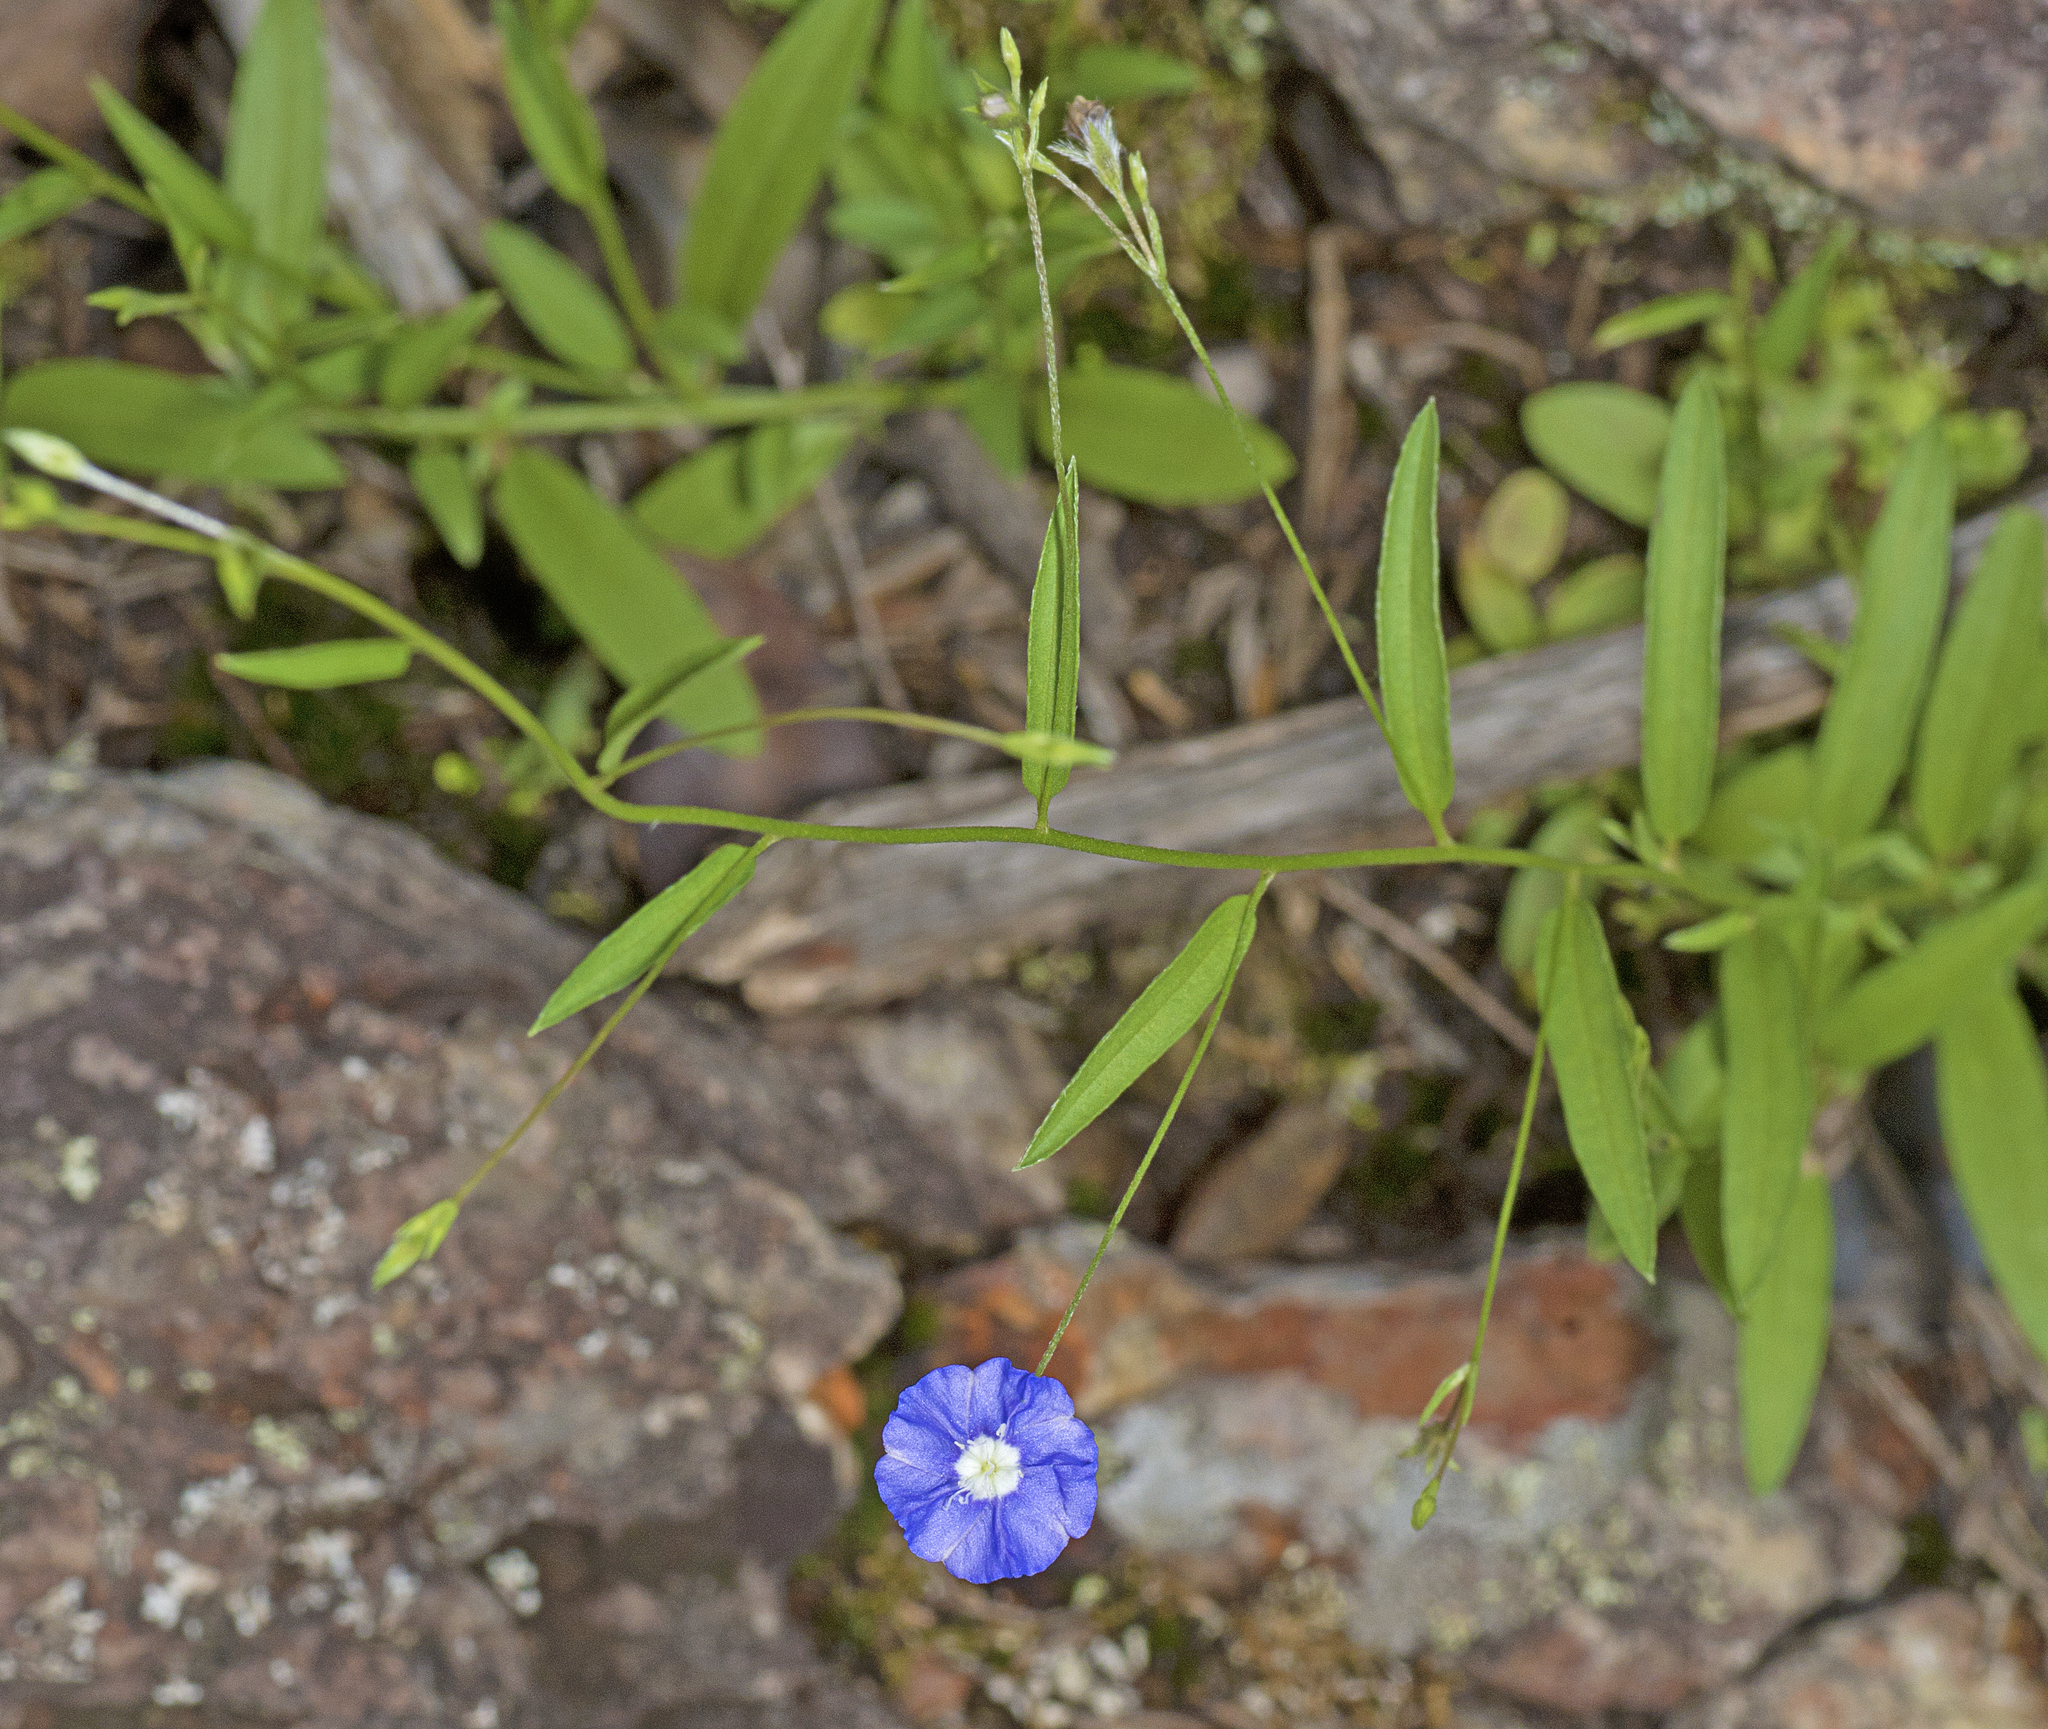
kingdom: Plantae
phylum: Tracheophyta
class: Magnoliopsida
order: Solanales
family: Convolvulaceae
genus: Evolvulus
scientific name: Evolvulus alsinoides
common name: Slender dwarf morning-glory
